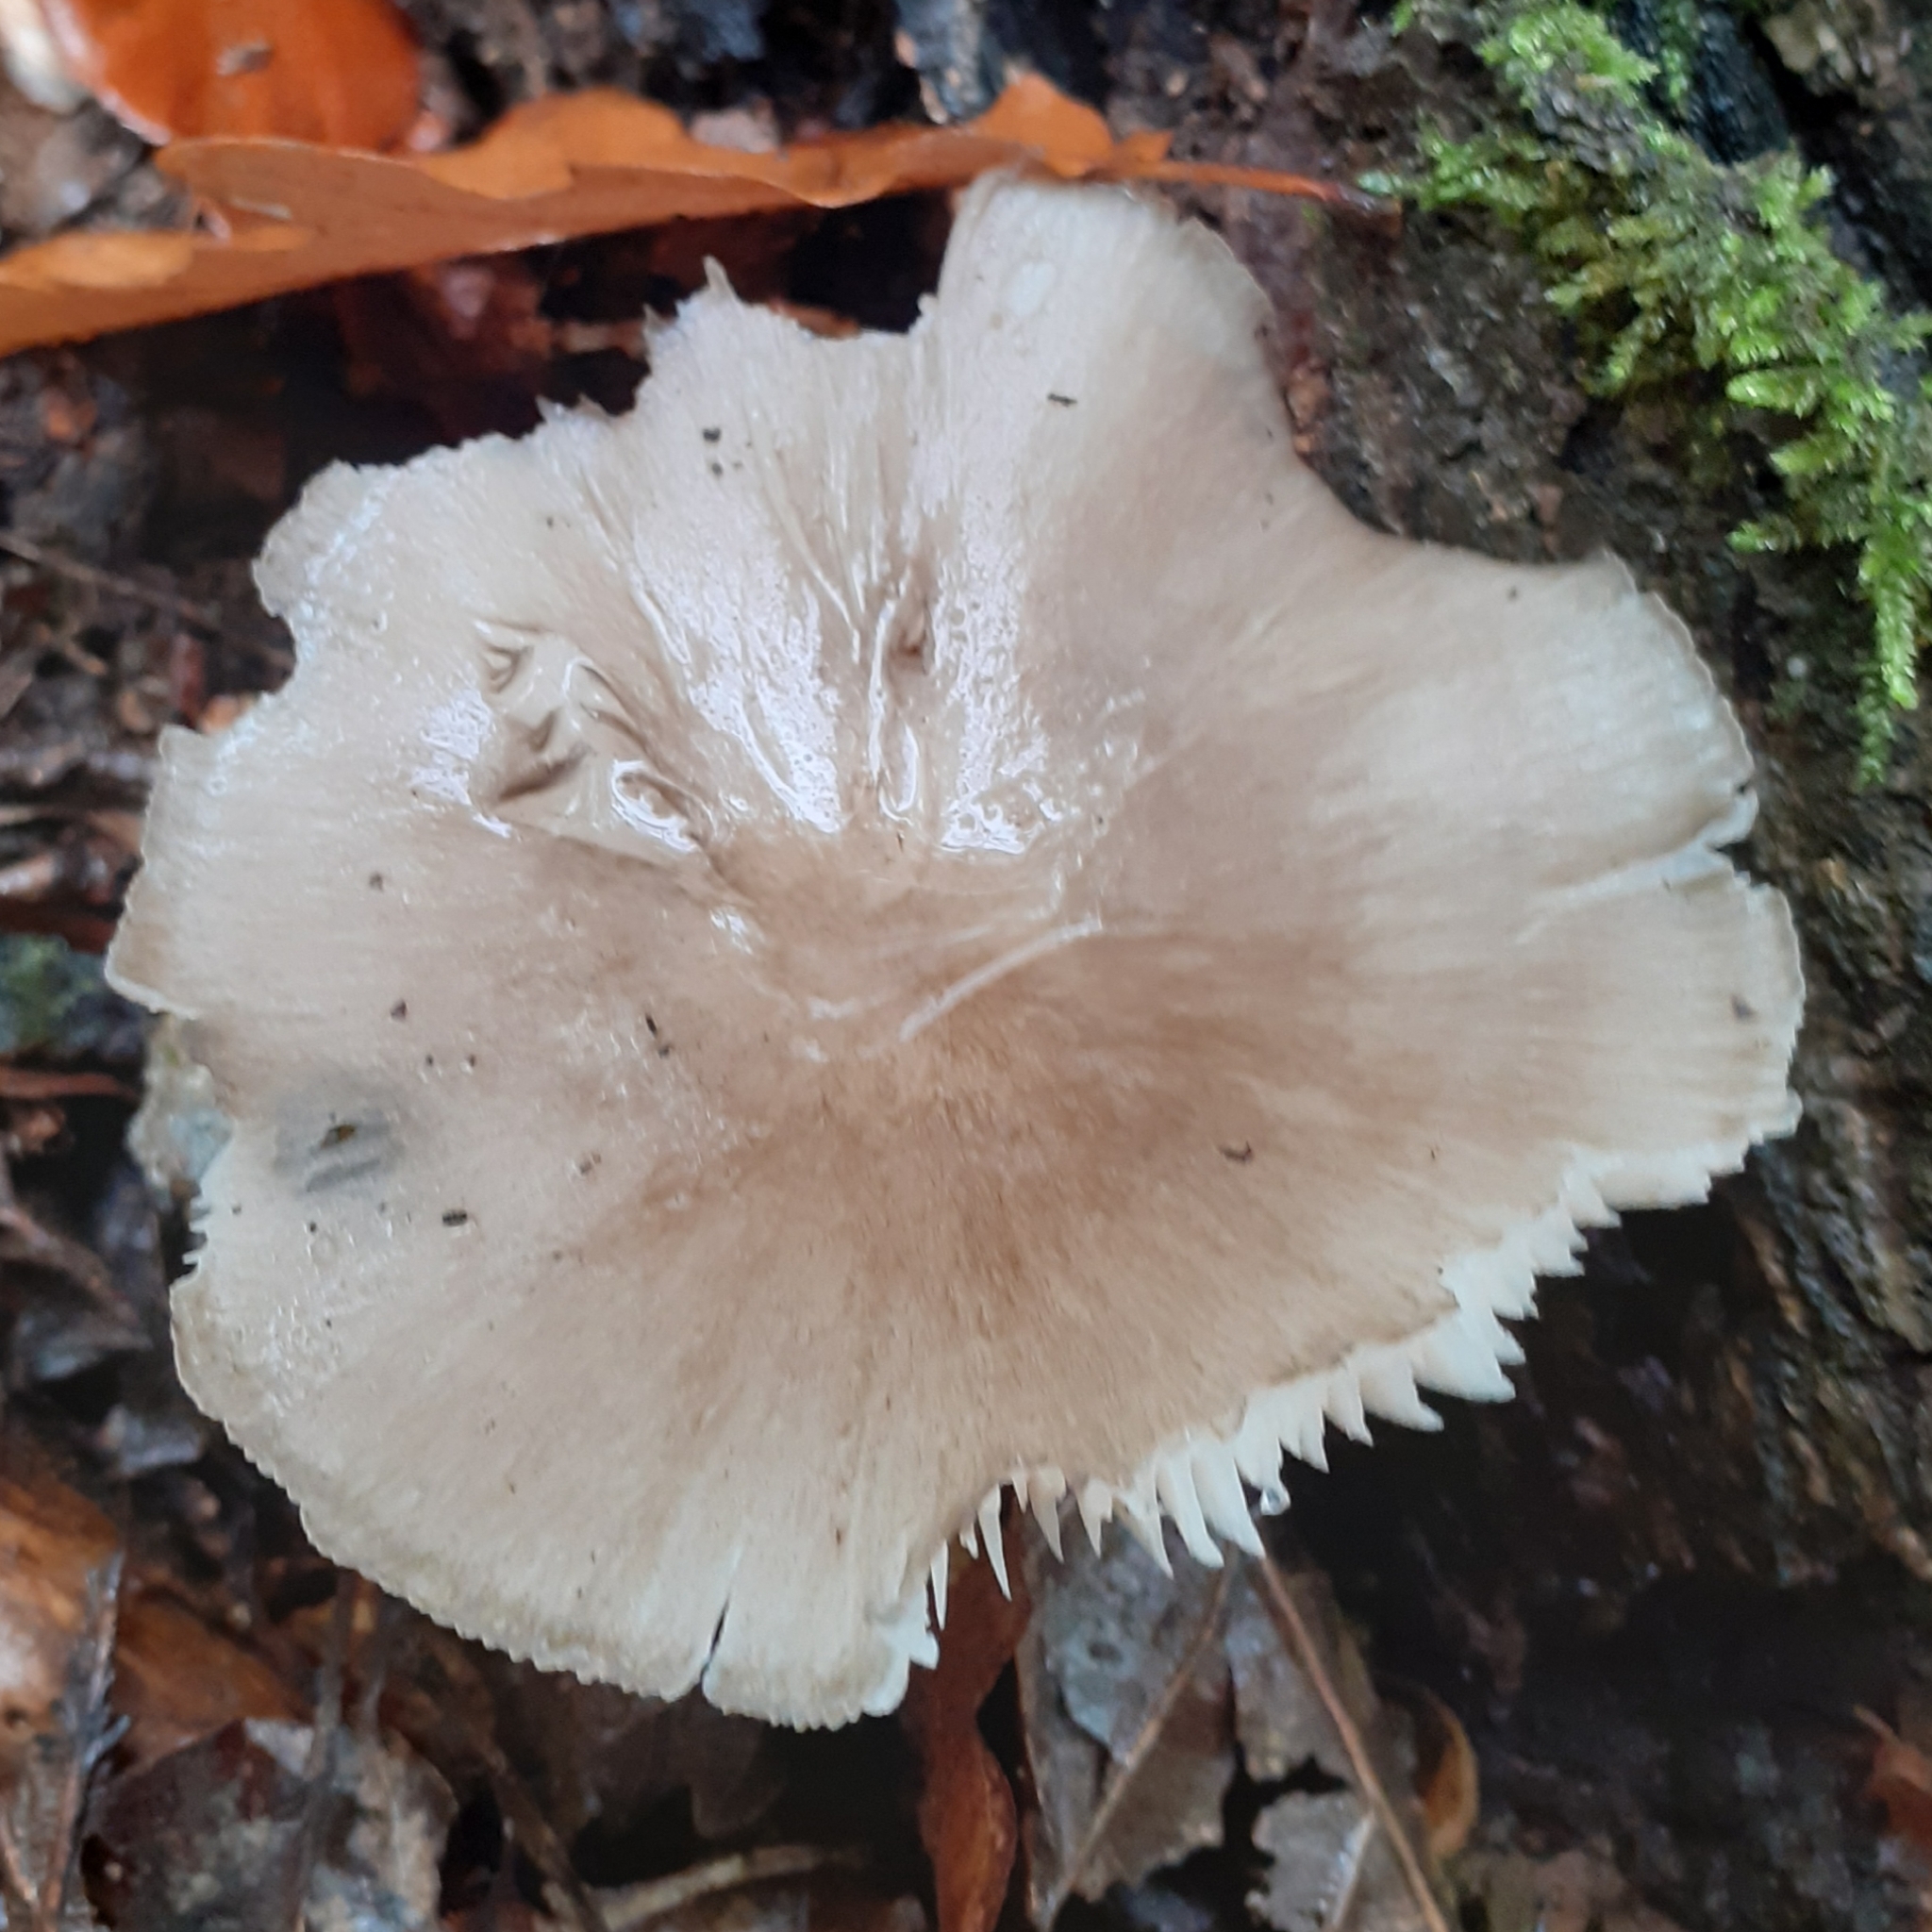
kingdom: Fungi
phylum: Basidiomycota
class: Agaricomycetes
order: Agaricales
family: Tricholomataceae
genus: Megacollybia
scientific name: Megacollybia platyphylla
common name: Whitelaced shank
